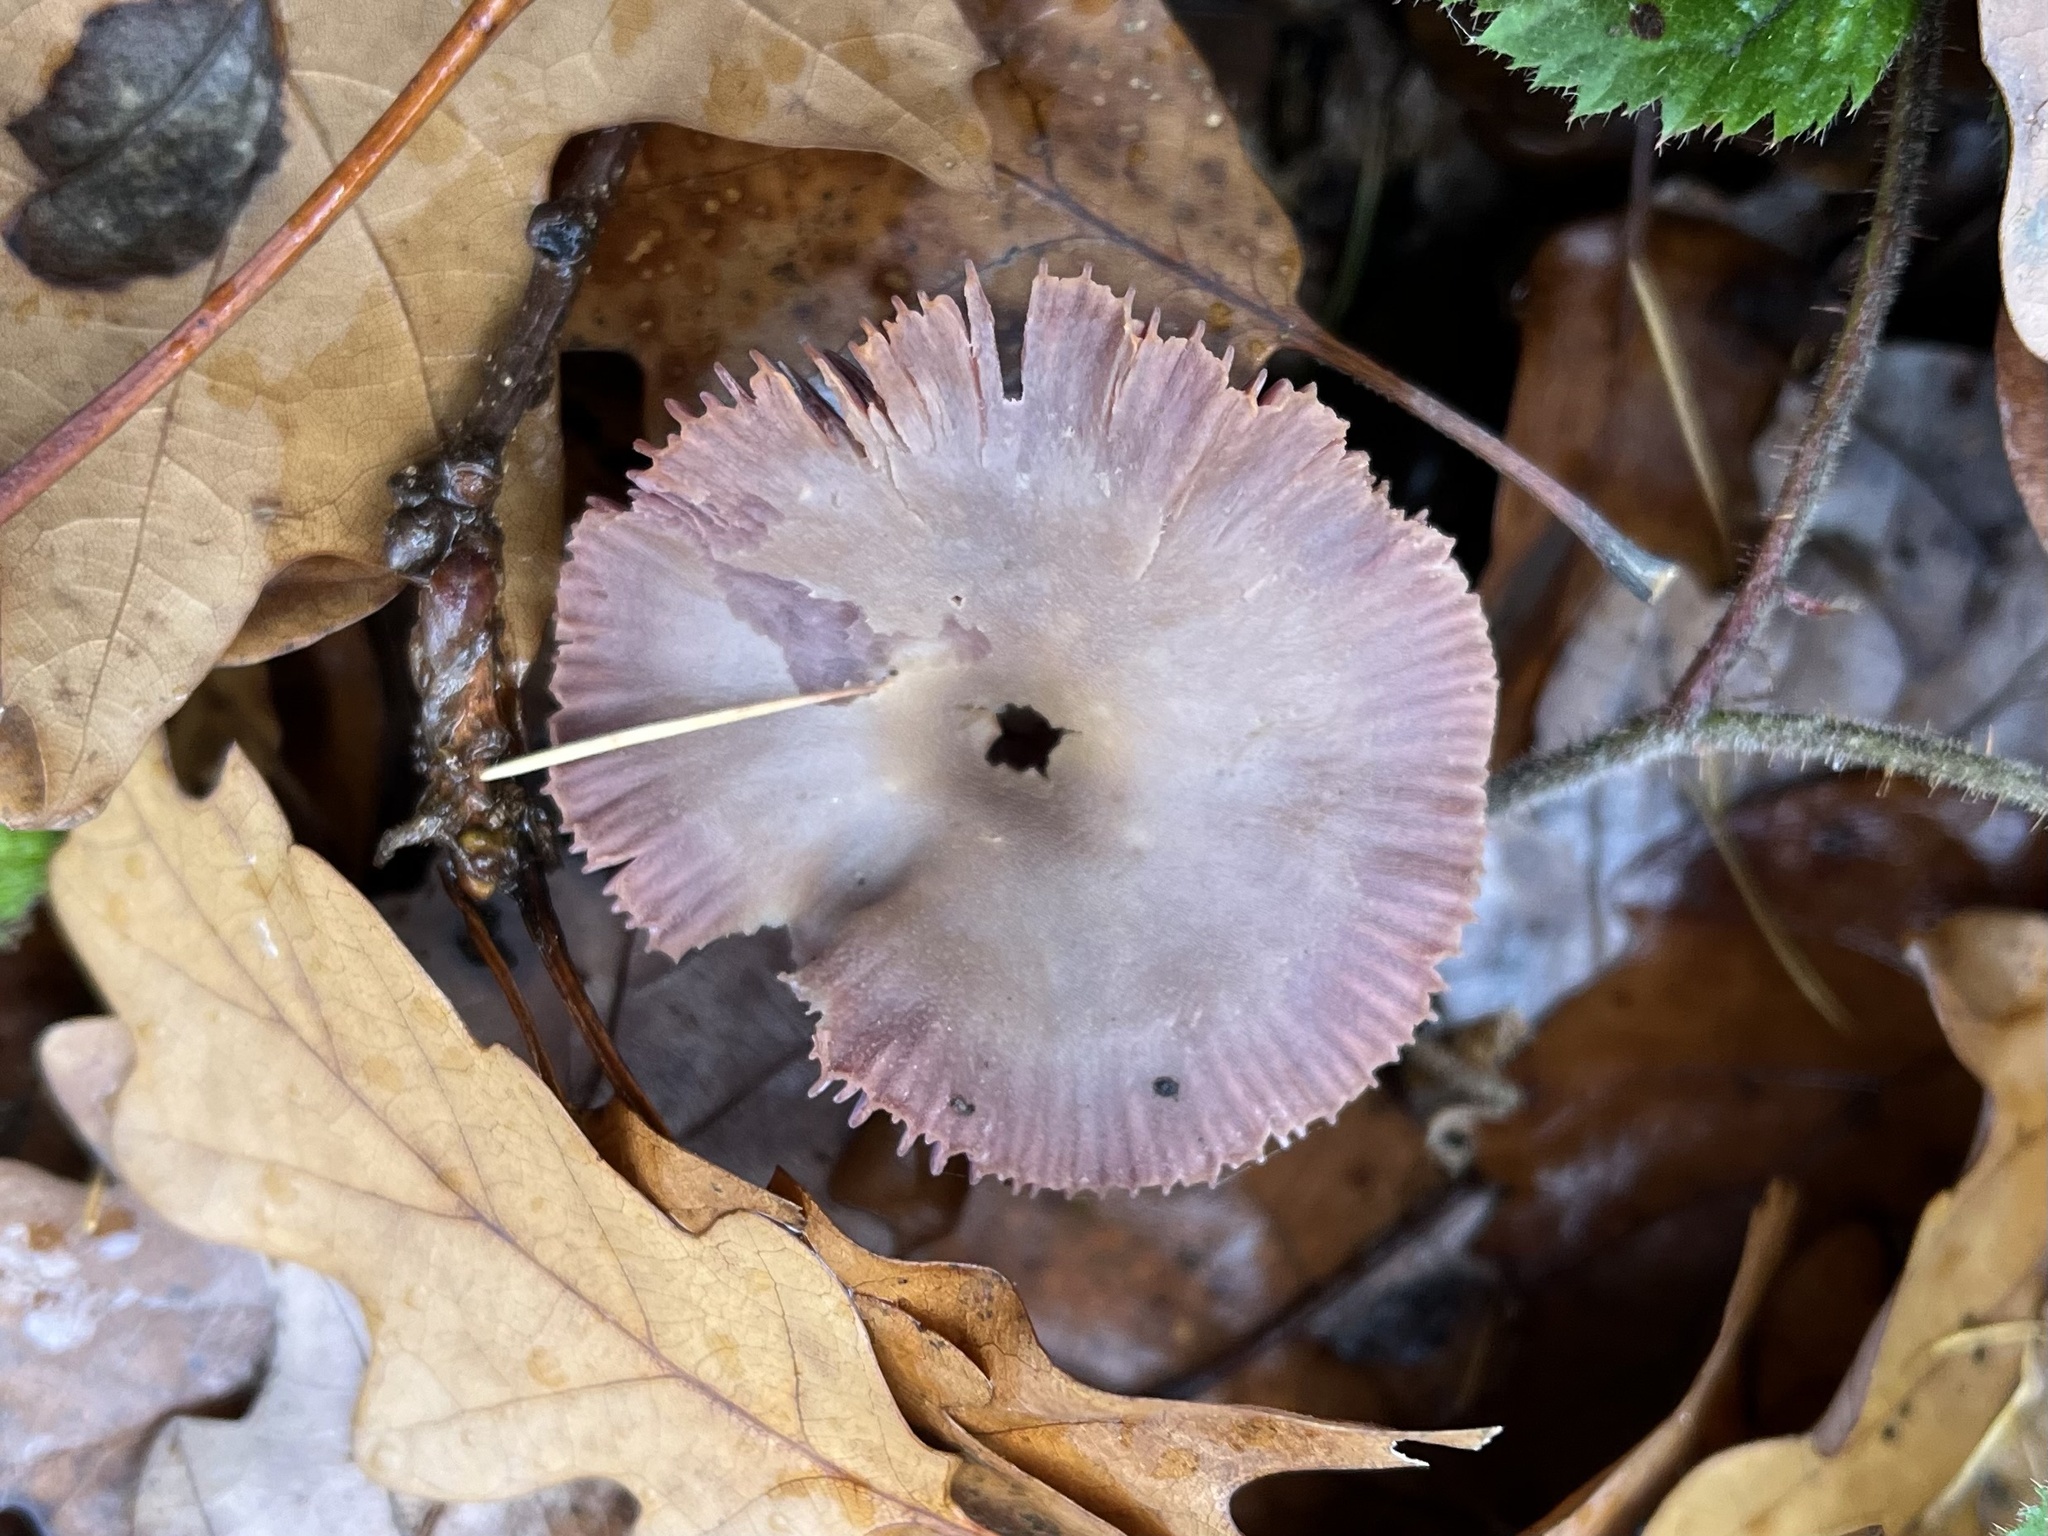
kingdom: Fungi
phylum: Basidiomycota
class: Agaricomycetes
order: Agaricales
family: Hydnangiaceae
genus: Laccaria
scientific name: Laccaria amethystina
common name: Amethyst deceiver
